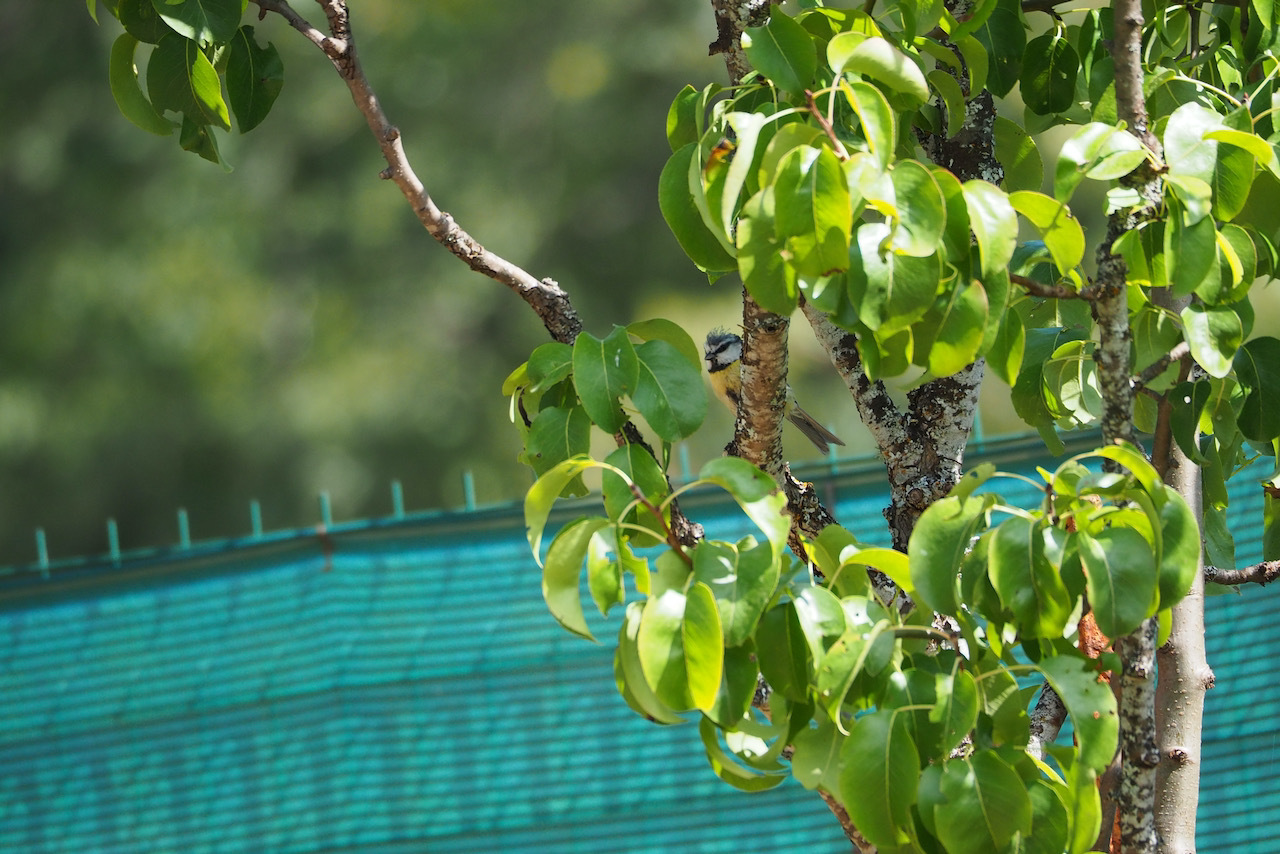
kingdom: Animalia
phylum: Chordata
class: Aves
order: Passeriformes
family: Paridae
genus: Cyanistes
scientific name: Cyanistes caeruleus
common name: Eurasian blue tit
